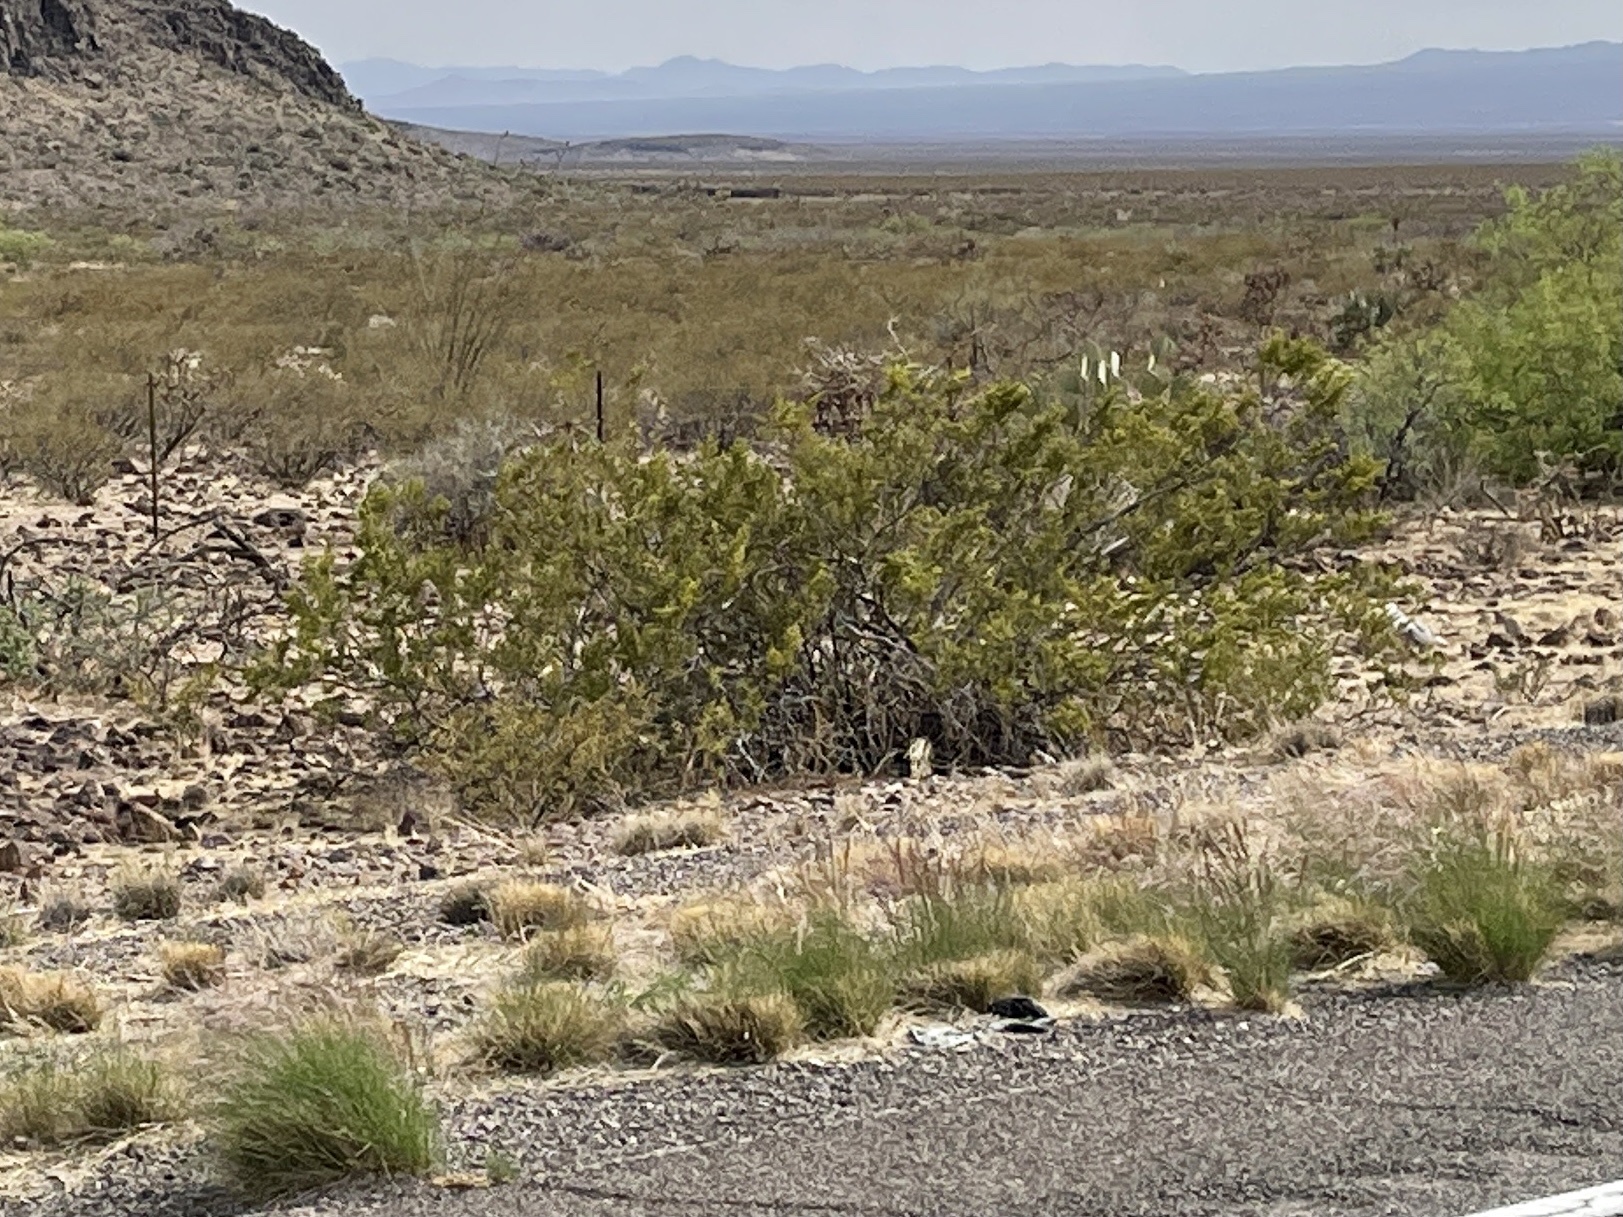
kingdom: Plantae
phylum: Tracheophyta
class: Magnoliopsida
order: Zygophyllales
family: Zygophyllaceae
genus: Larrea
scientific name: Larrea tridentata
